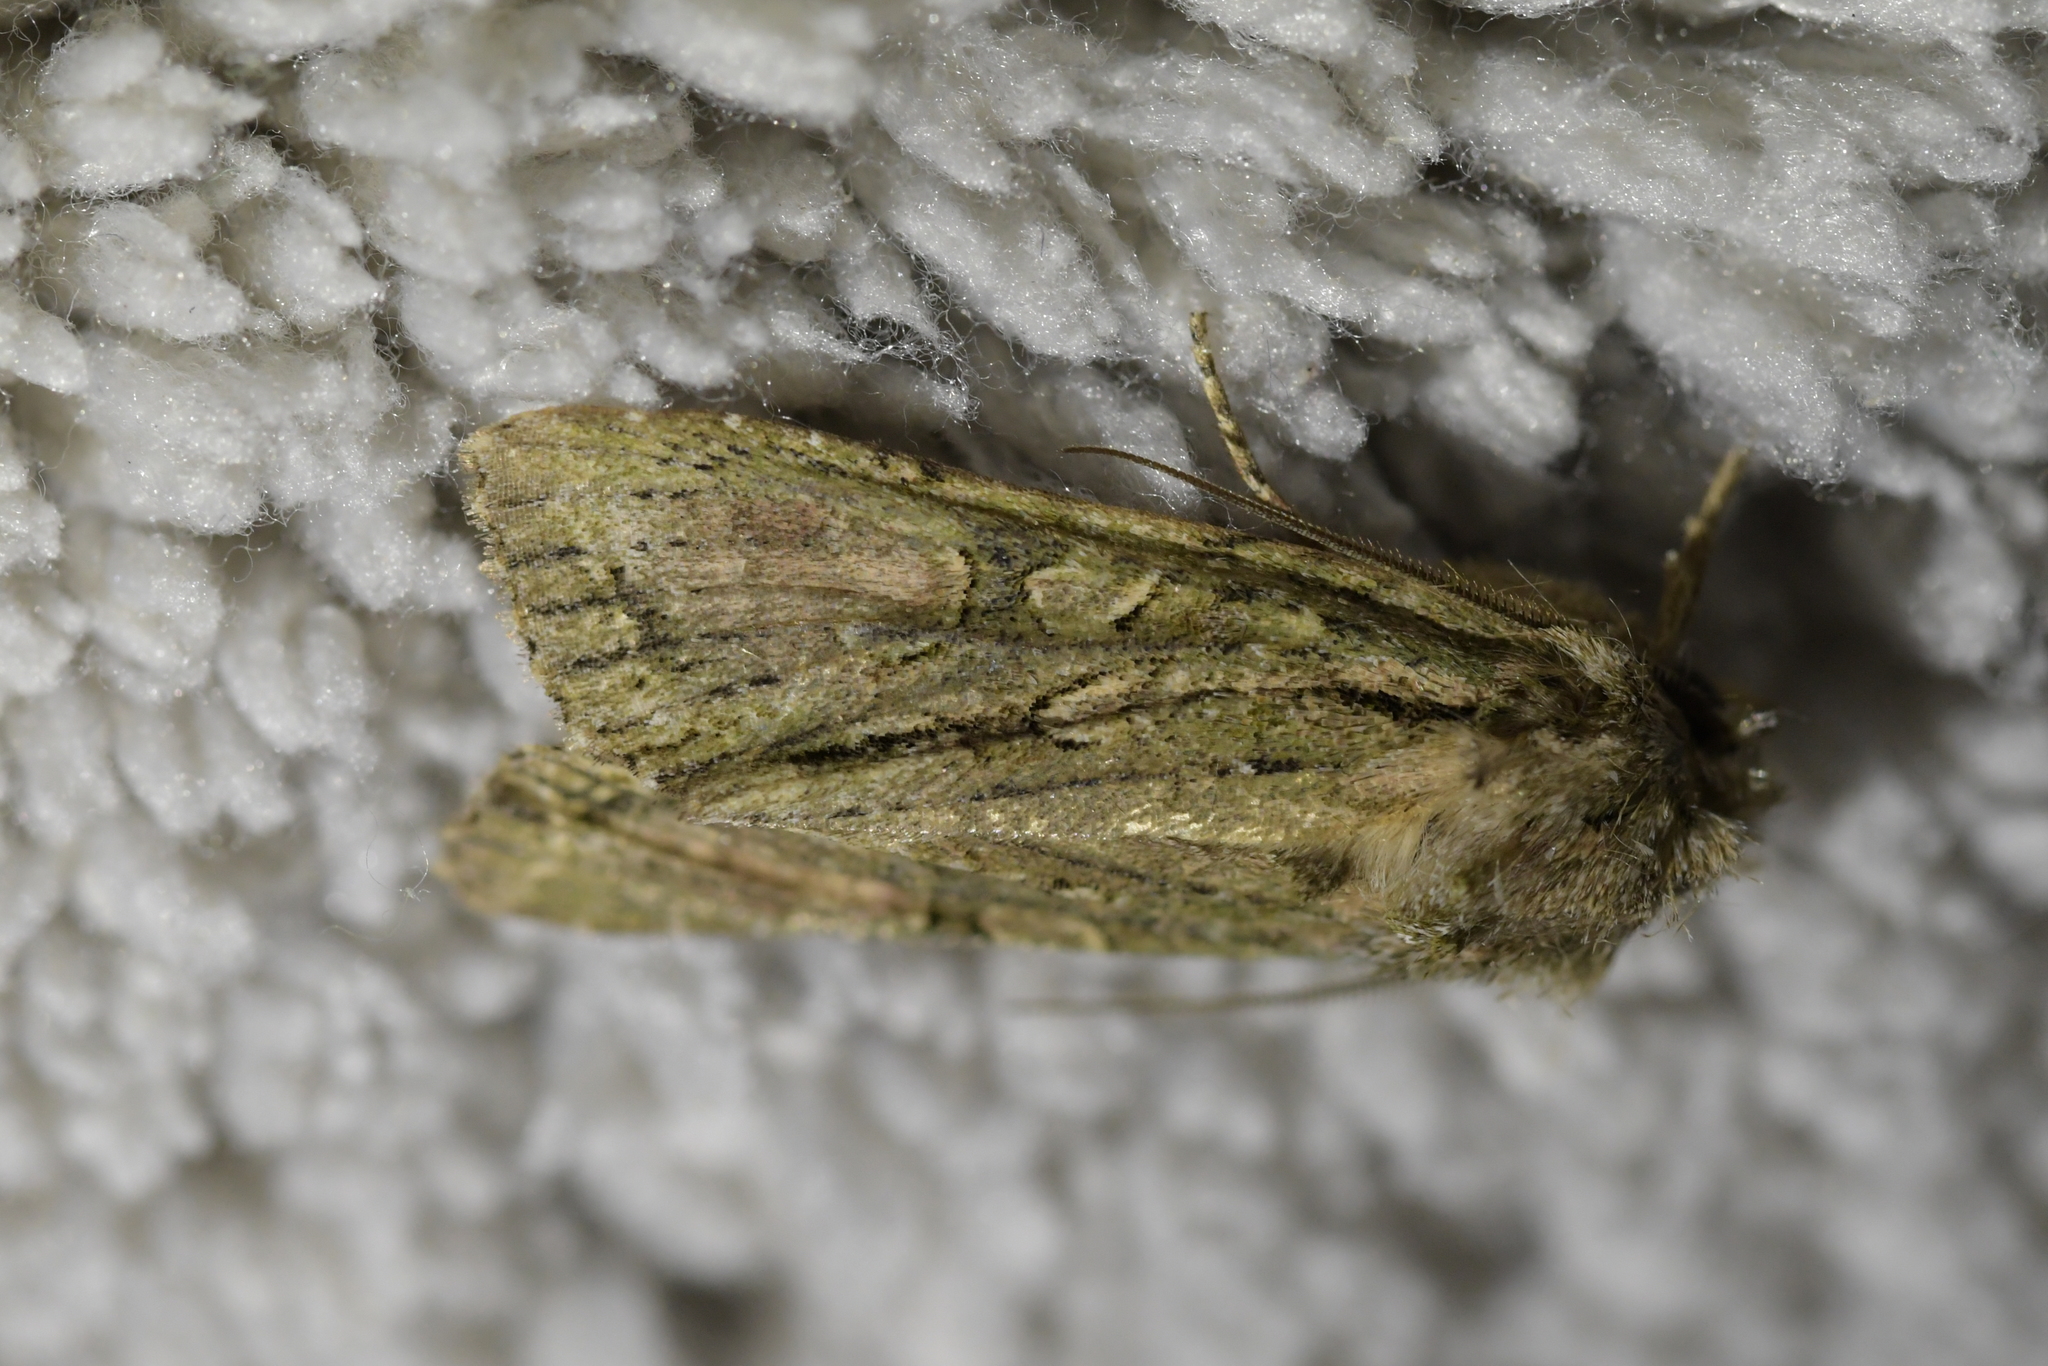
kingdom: Animalia
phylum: Arthropoda
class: Insecta
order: Lepidoptera
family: Noctuidae
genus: Ichneutica
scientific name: Ichneutica mutans
